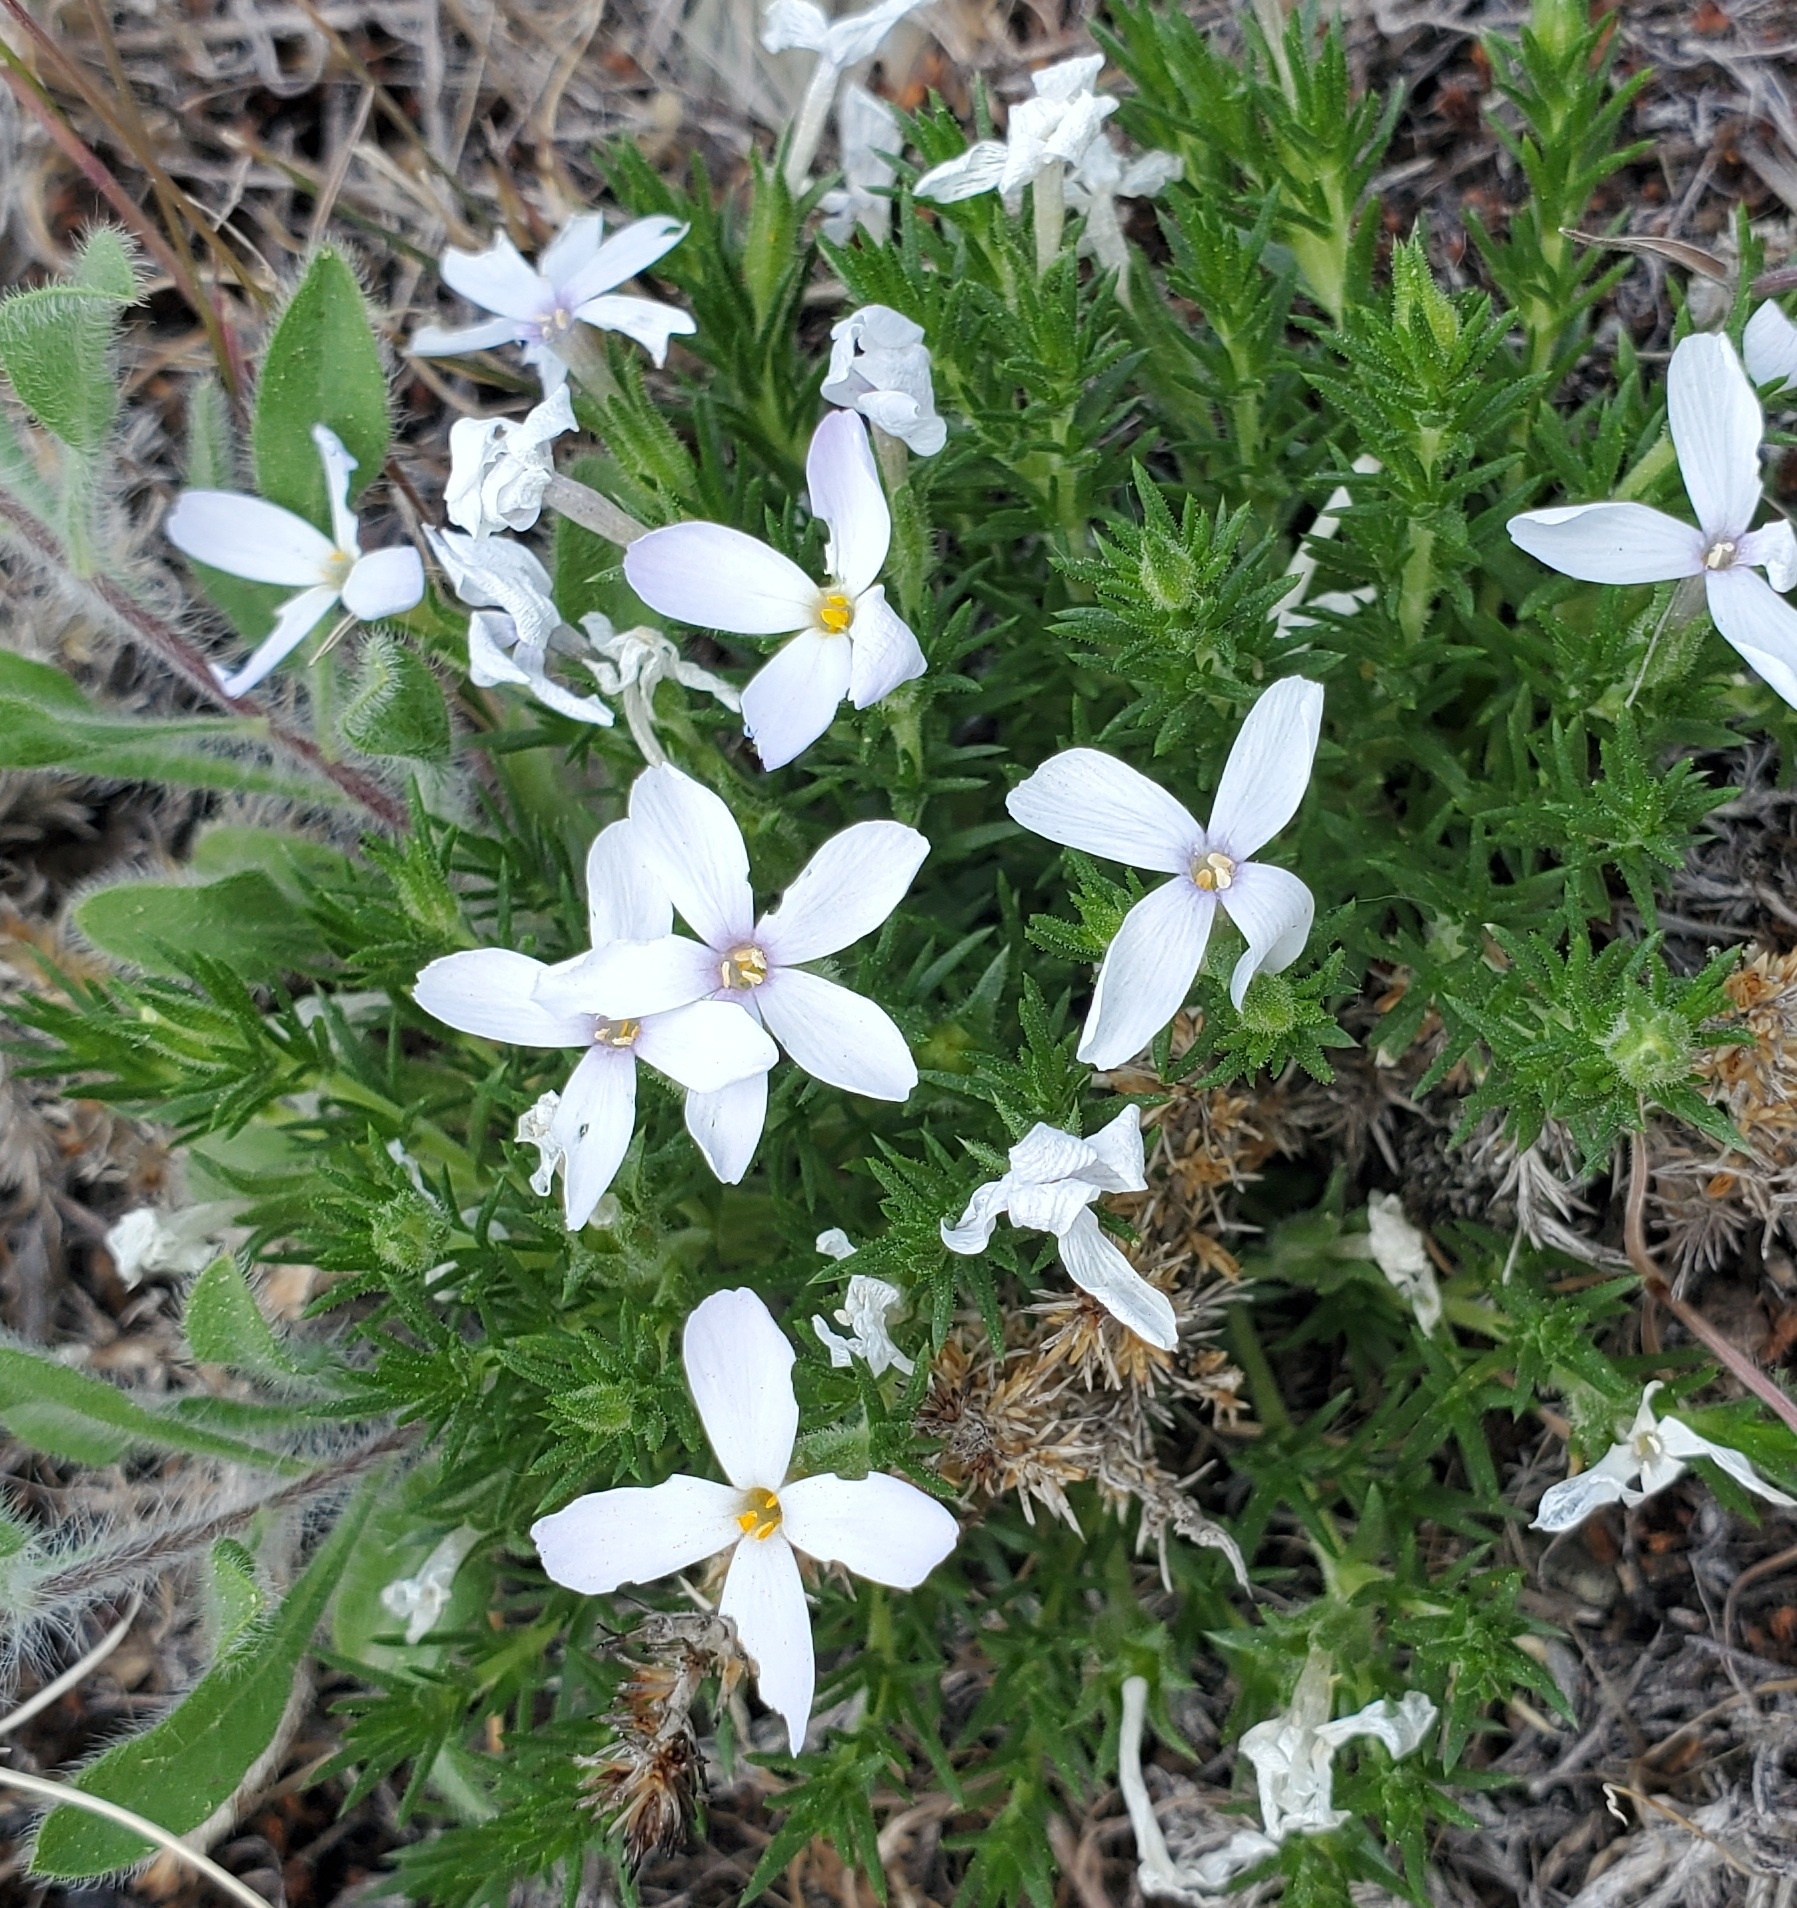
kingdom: Plantae
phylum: Tracheophyta
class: Magnoliopsida
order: Ericales
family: Polemoniaceae
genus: Phlox
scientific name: Phlox caespitosa
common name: Cushion phlox
